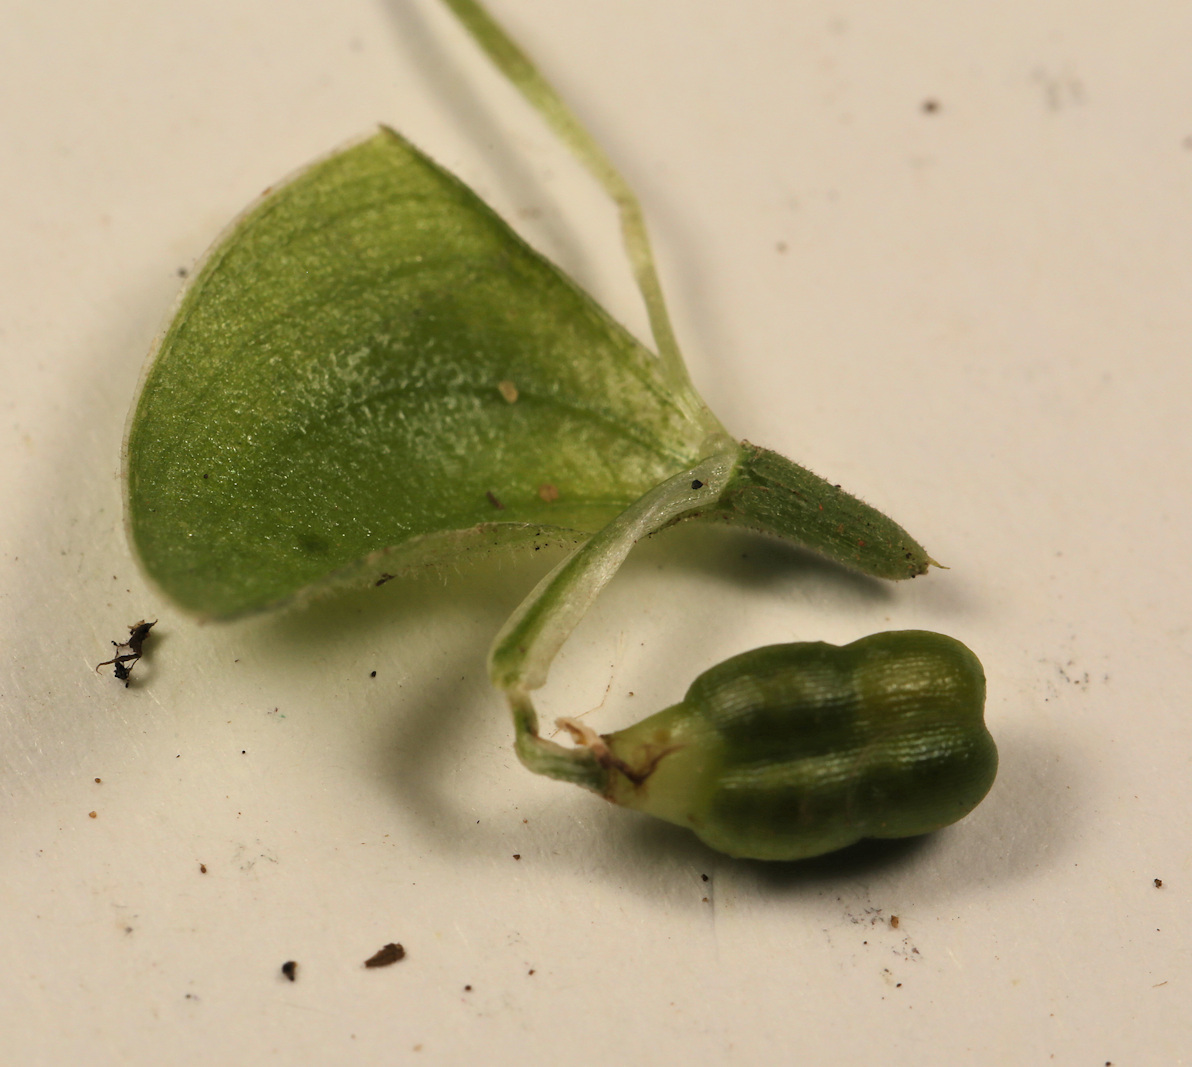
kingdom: Plantae
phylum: Tracheophyta
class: Liliopsida
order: Commelinales
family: Commelinaceae
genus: Commelina
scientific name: Commelina benghalensis
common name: Jio
